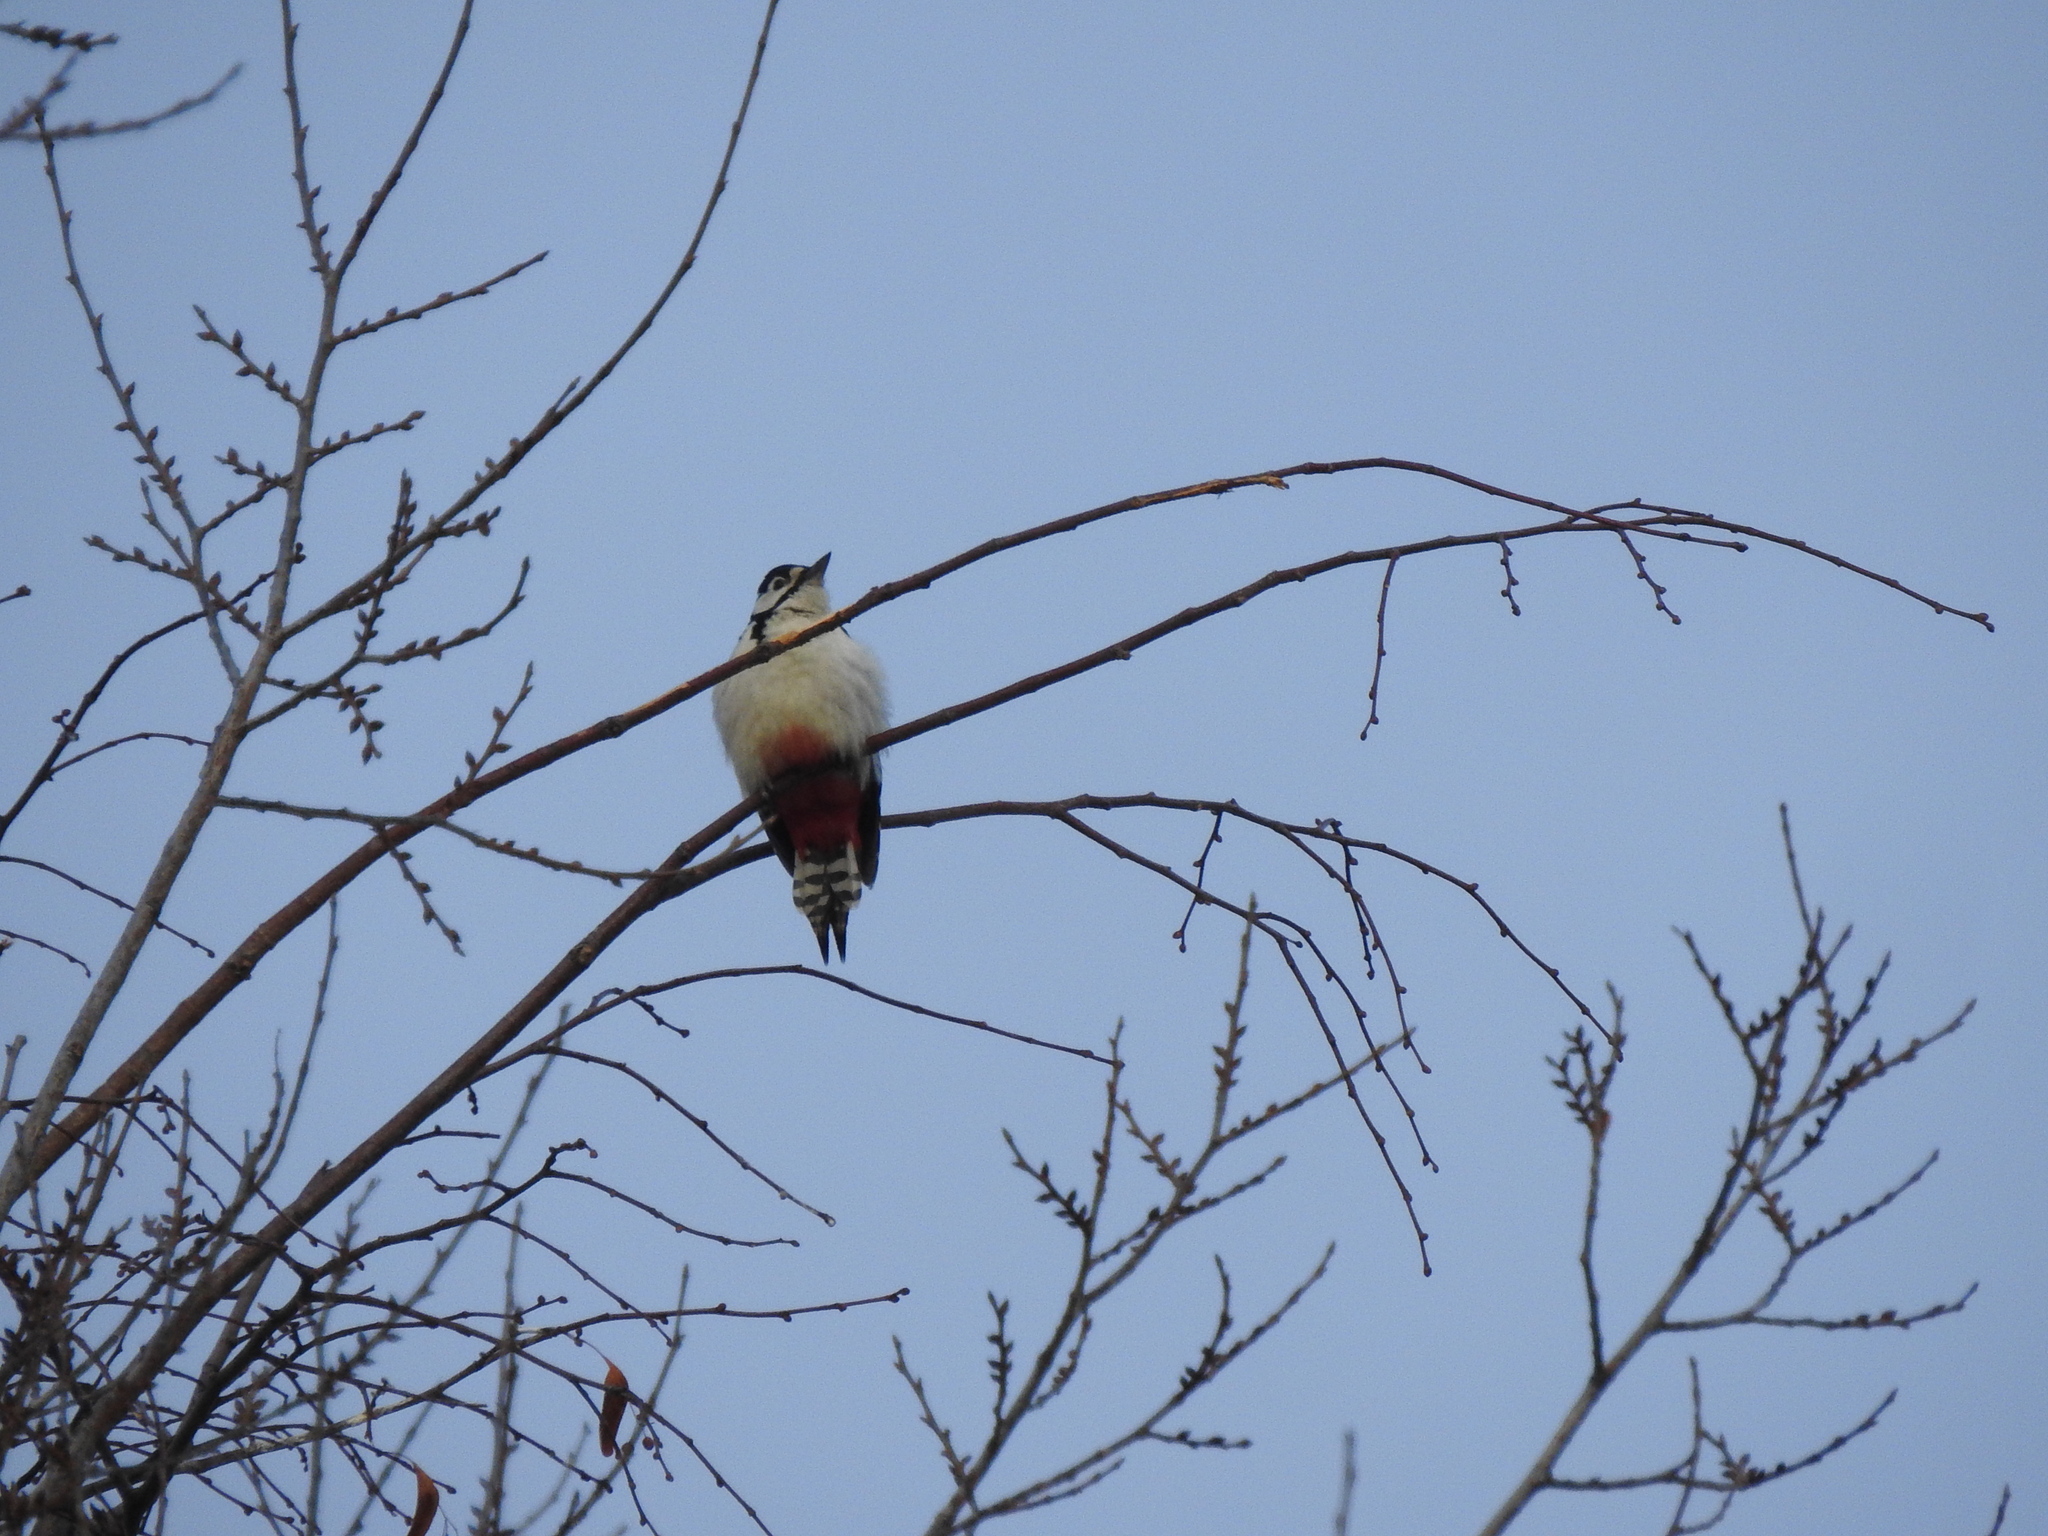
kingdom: Animalia
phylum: Chordata
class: Aves
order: Piciformes
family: Picidae
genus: Dendrocopos
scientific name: Dendrocopos major
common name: Great spotted woodpecker
